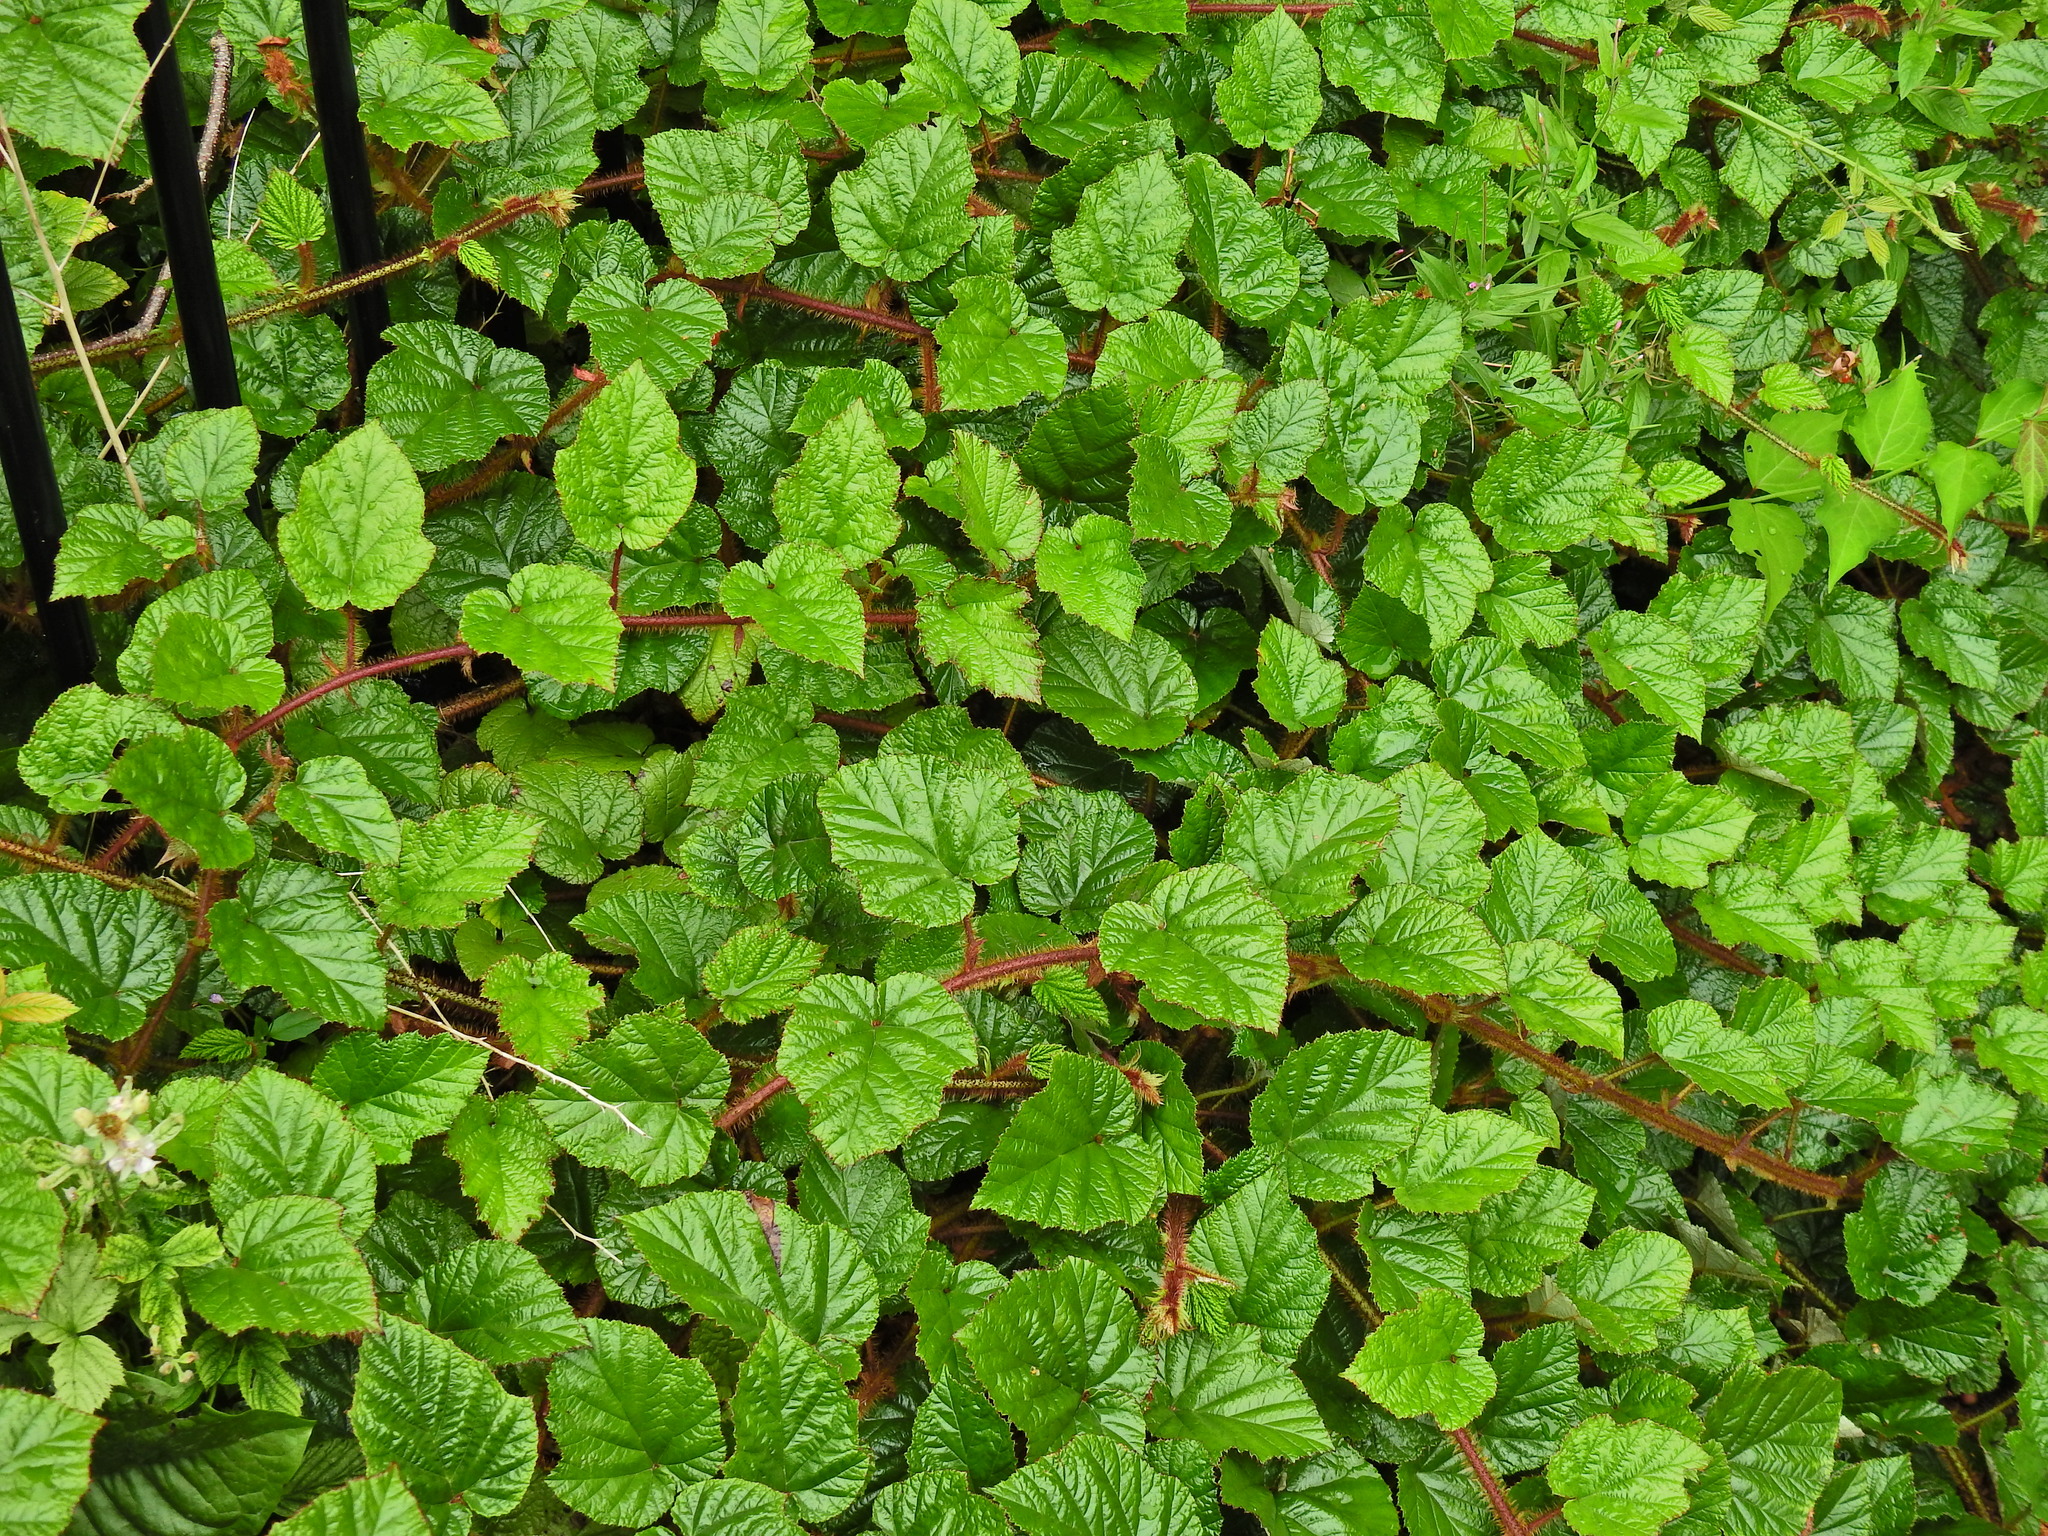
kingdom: Plantae
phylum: Tracheophyta
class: Magnoliopsida
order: Rosales
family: Rosaceae
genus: Rubus
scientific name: Rubus tricolor
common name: Chinese bramble
